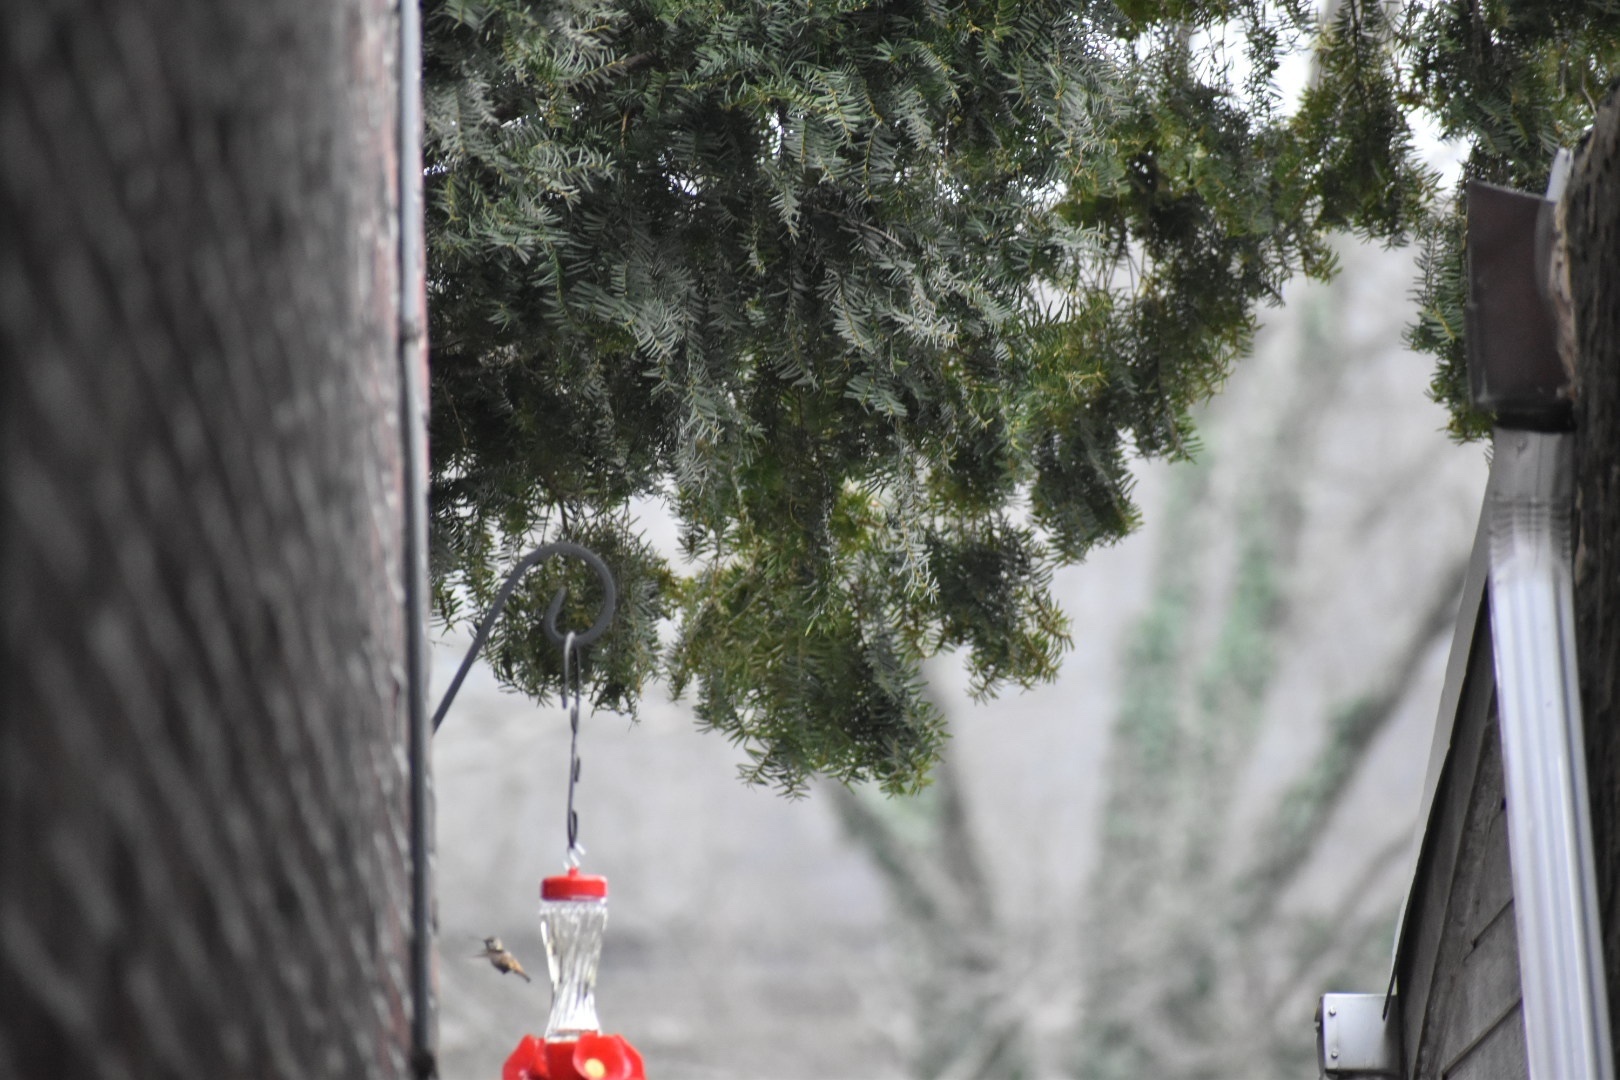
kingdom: Animalia
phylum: Chordata
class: Aves
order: Apodiformes
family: Trochilidae
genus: Selasphorus
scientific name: Selasphorus sasin
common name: Allen's hummingbird
